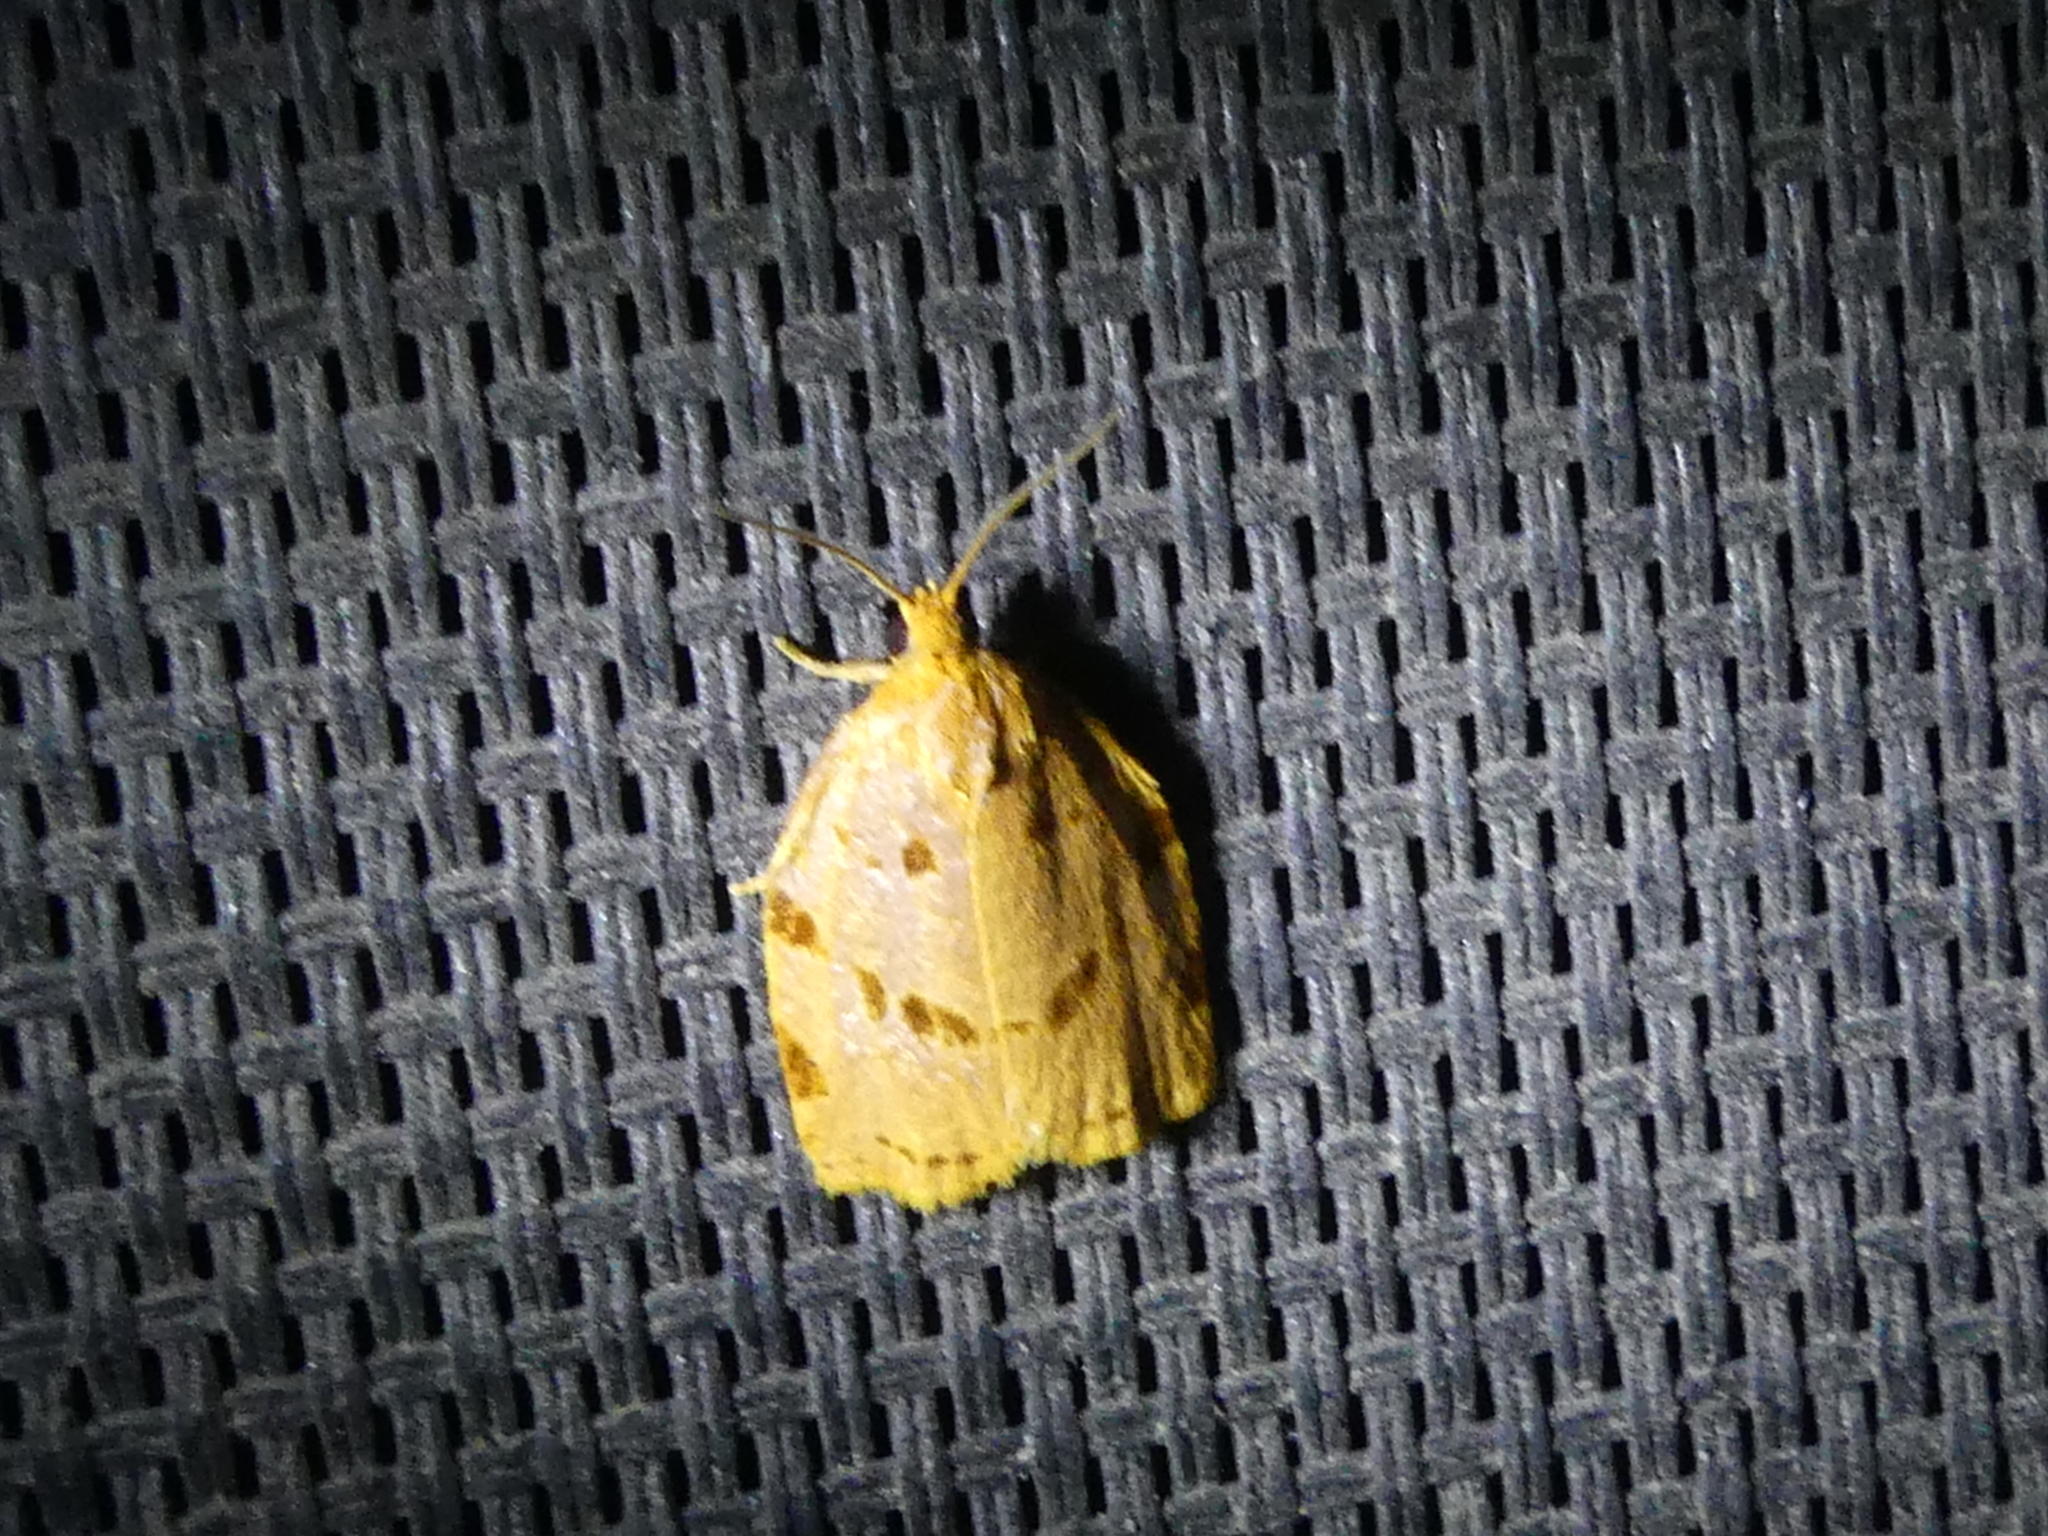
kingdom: Animalia
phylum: Arthropoda
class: Insecta
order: Lepidoptera
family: Tortricidae
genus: Archips
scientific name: Archips rileyana
